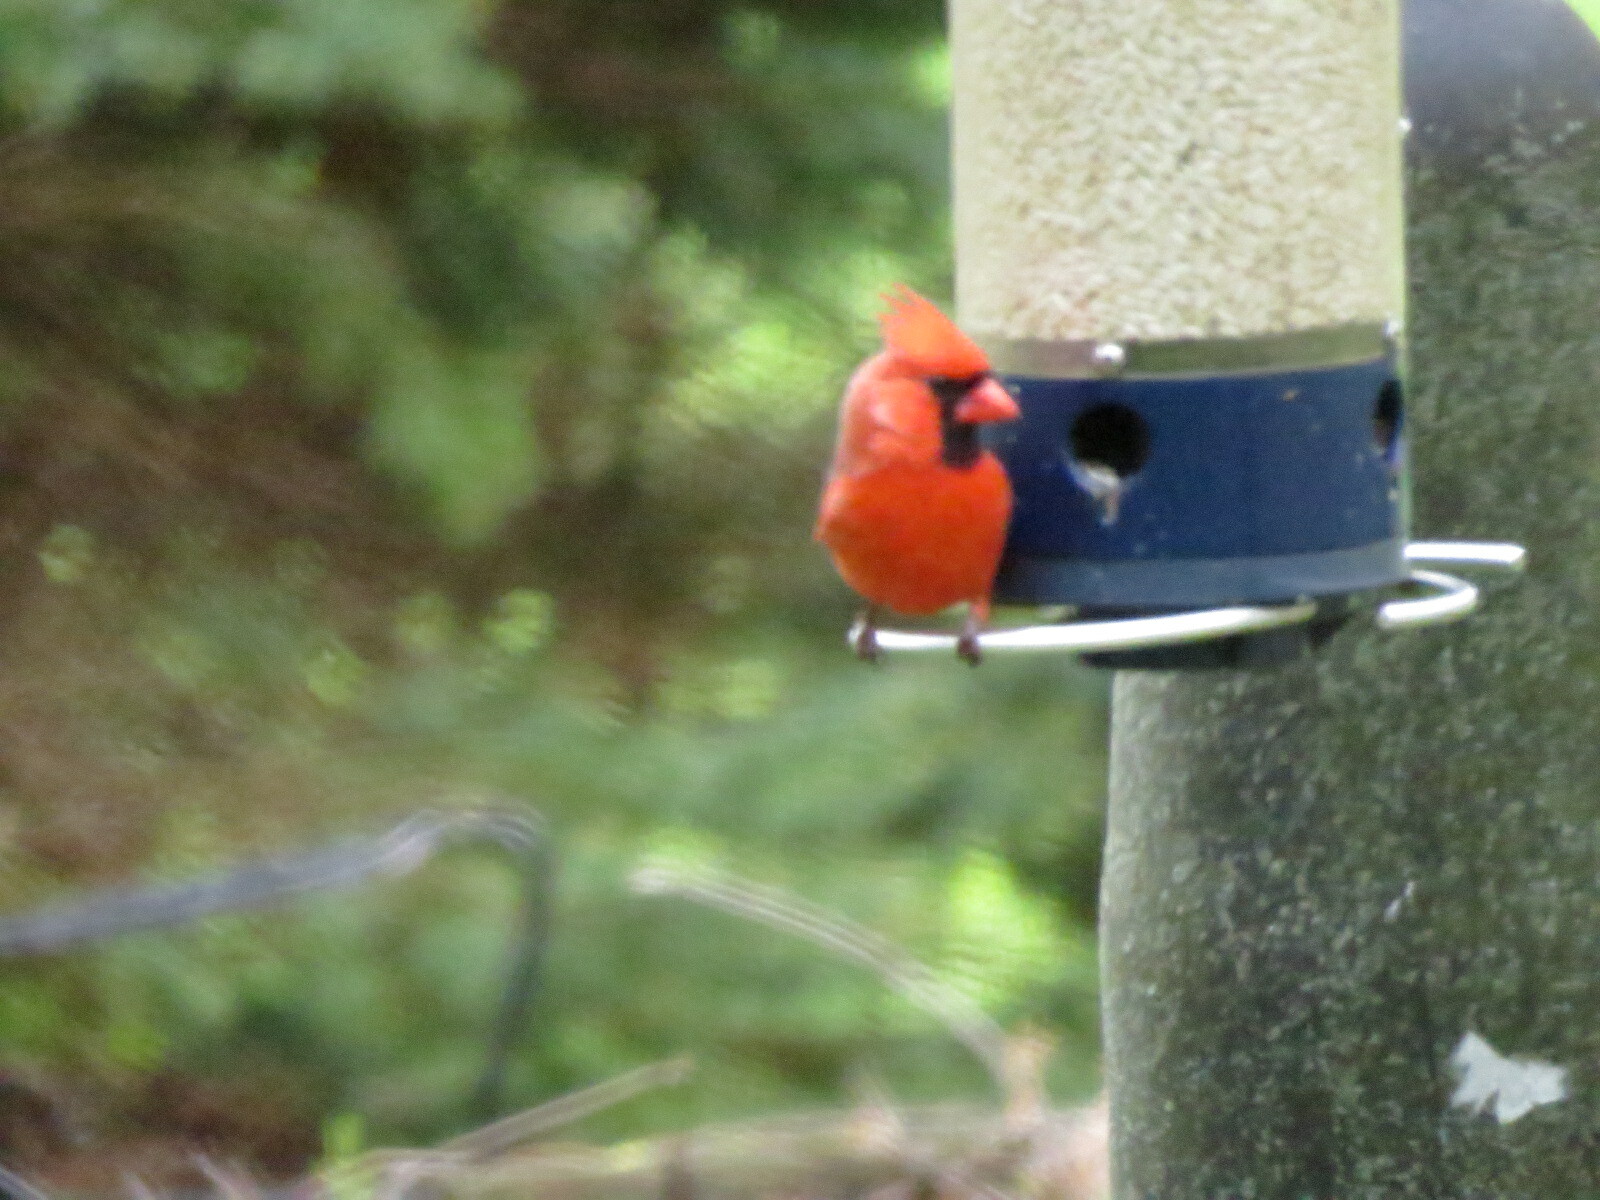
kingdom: Animalia
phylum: Chordata
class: Aves
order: Passeriformes
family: Cardinalidae
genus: Cardinalis
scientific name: Cardinalis cardinalis
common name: Northern cardinal
